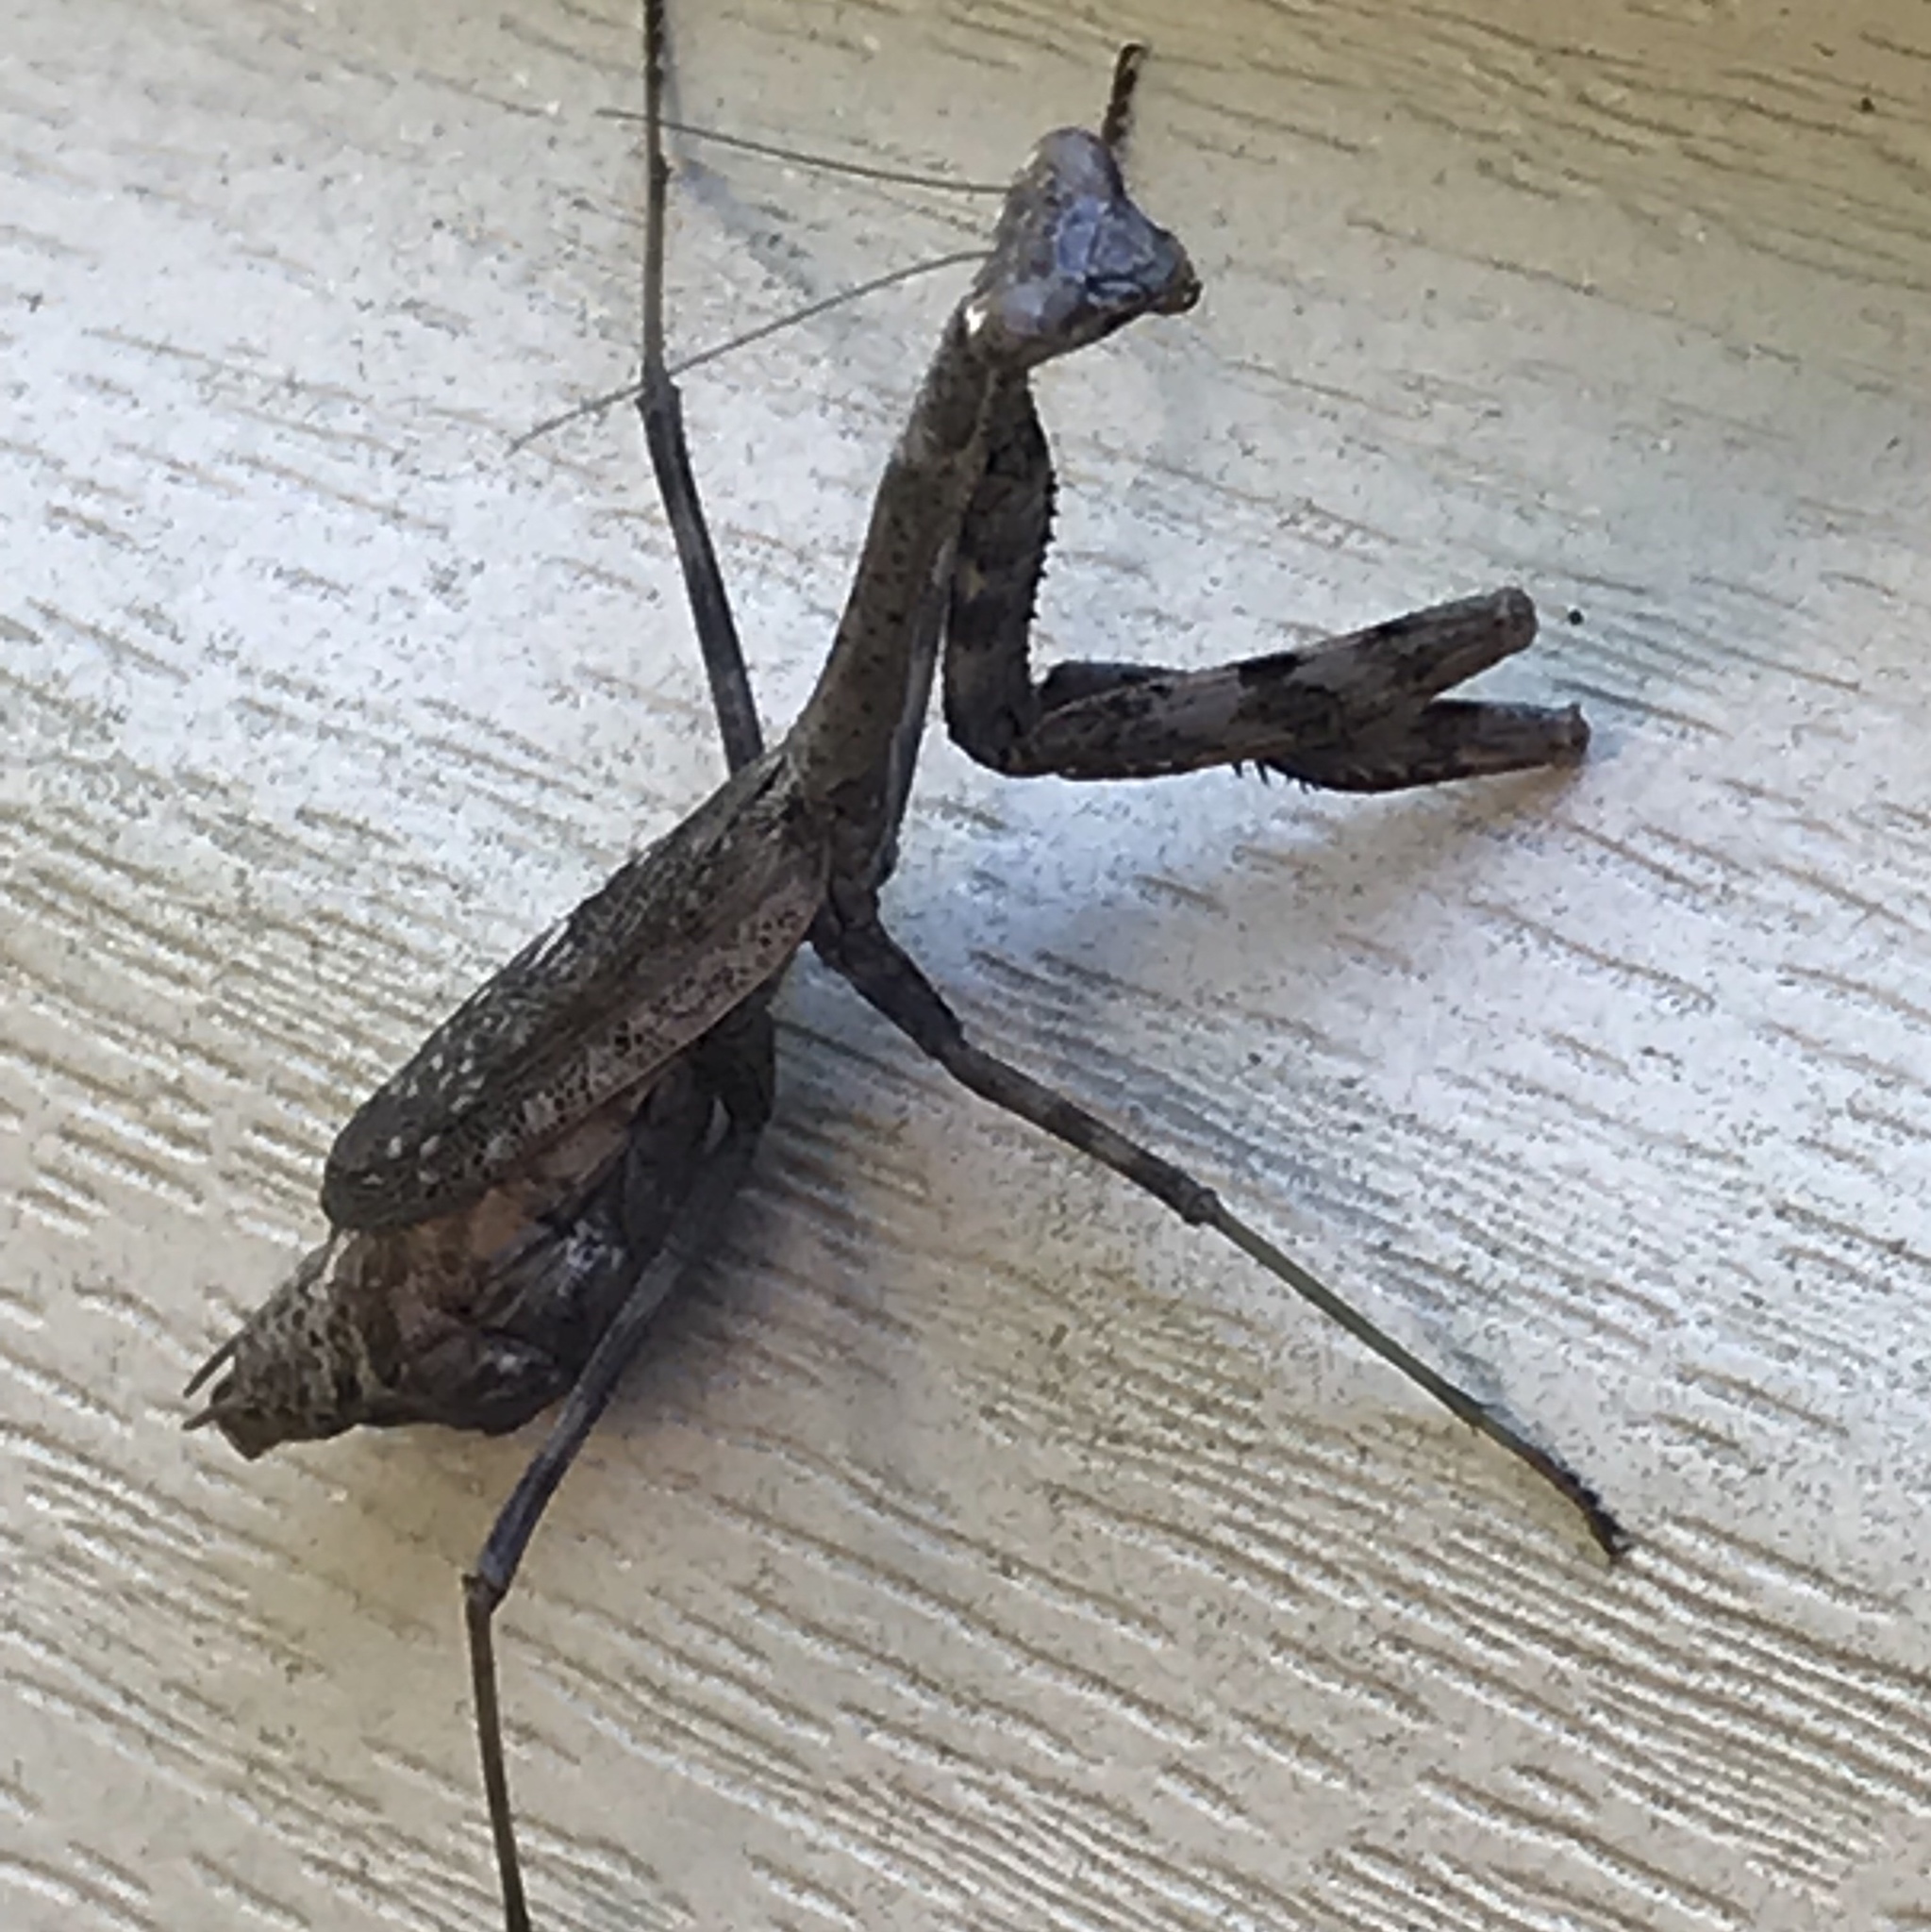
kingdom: Animalia
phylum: Arthropoda
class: Insecta
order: Mantodea
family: Mantidae
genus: Stagmomantis
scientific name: Stagmomantis carolina
